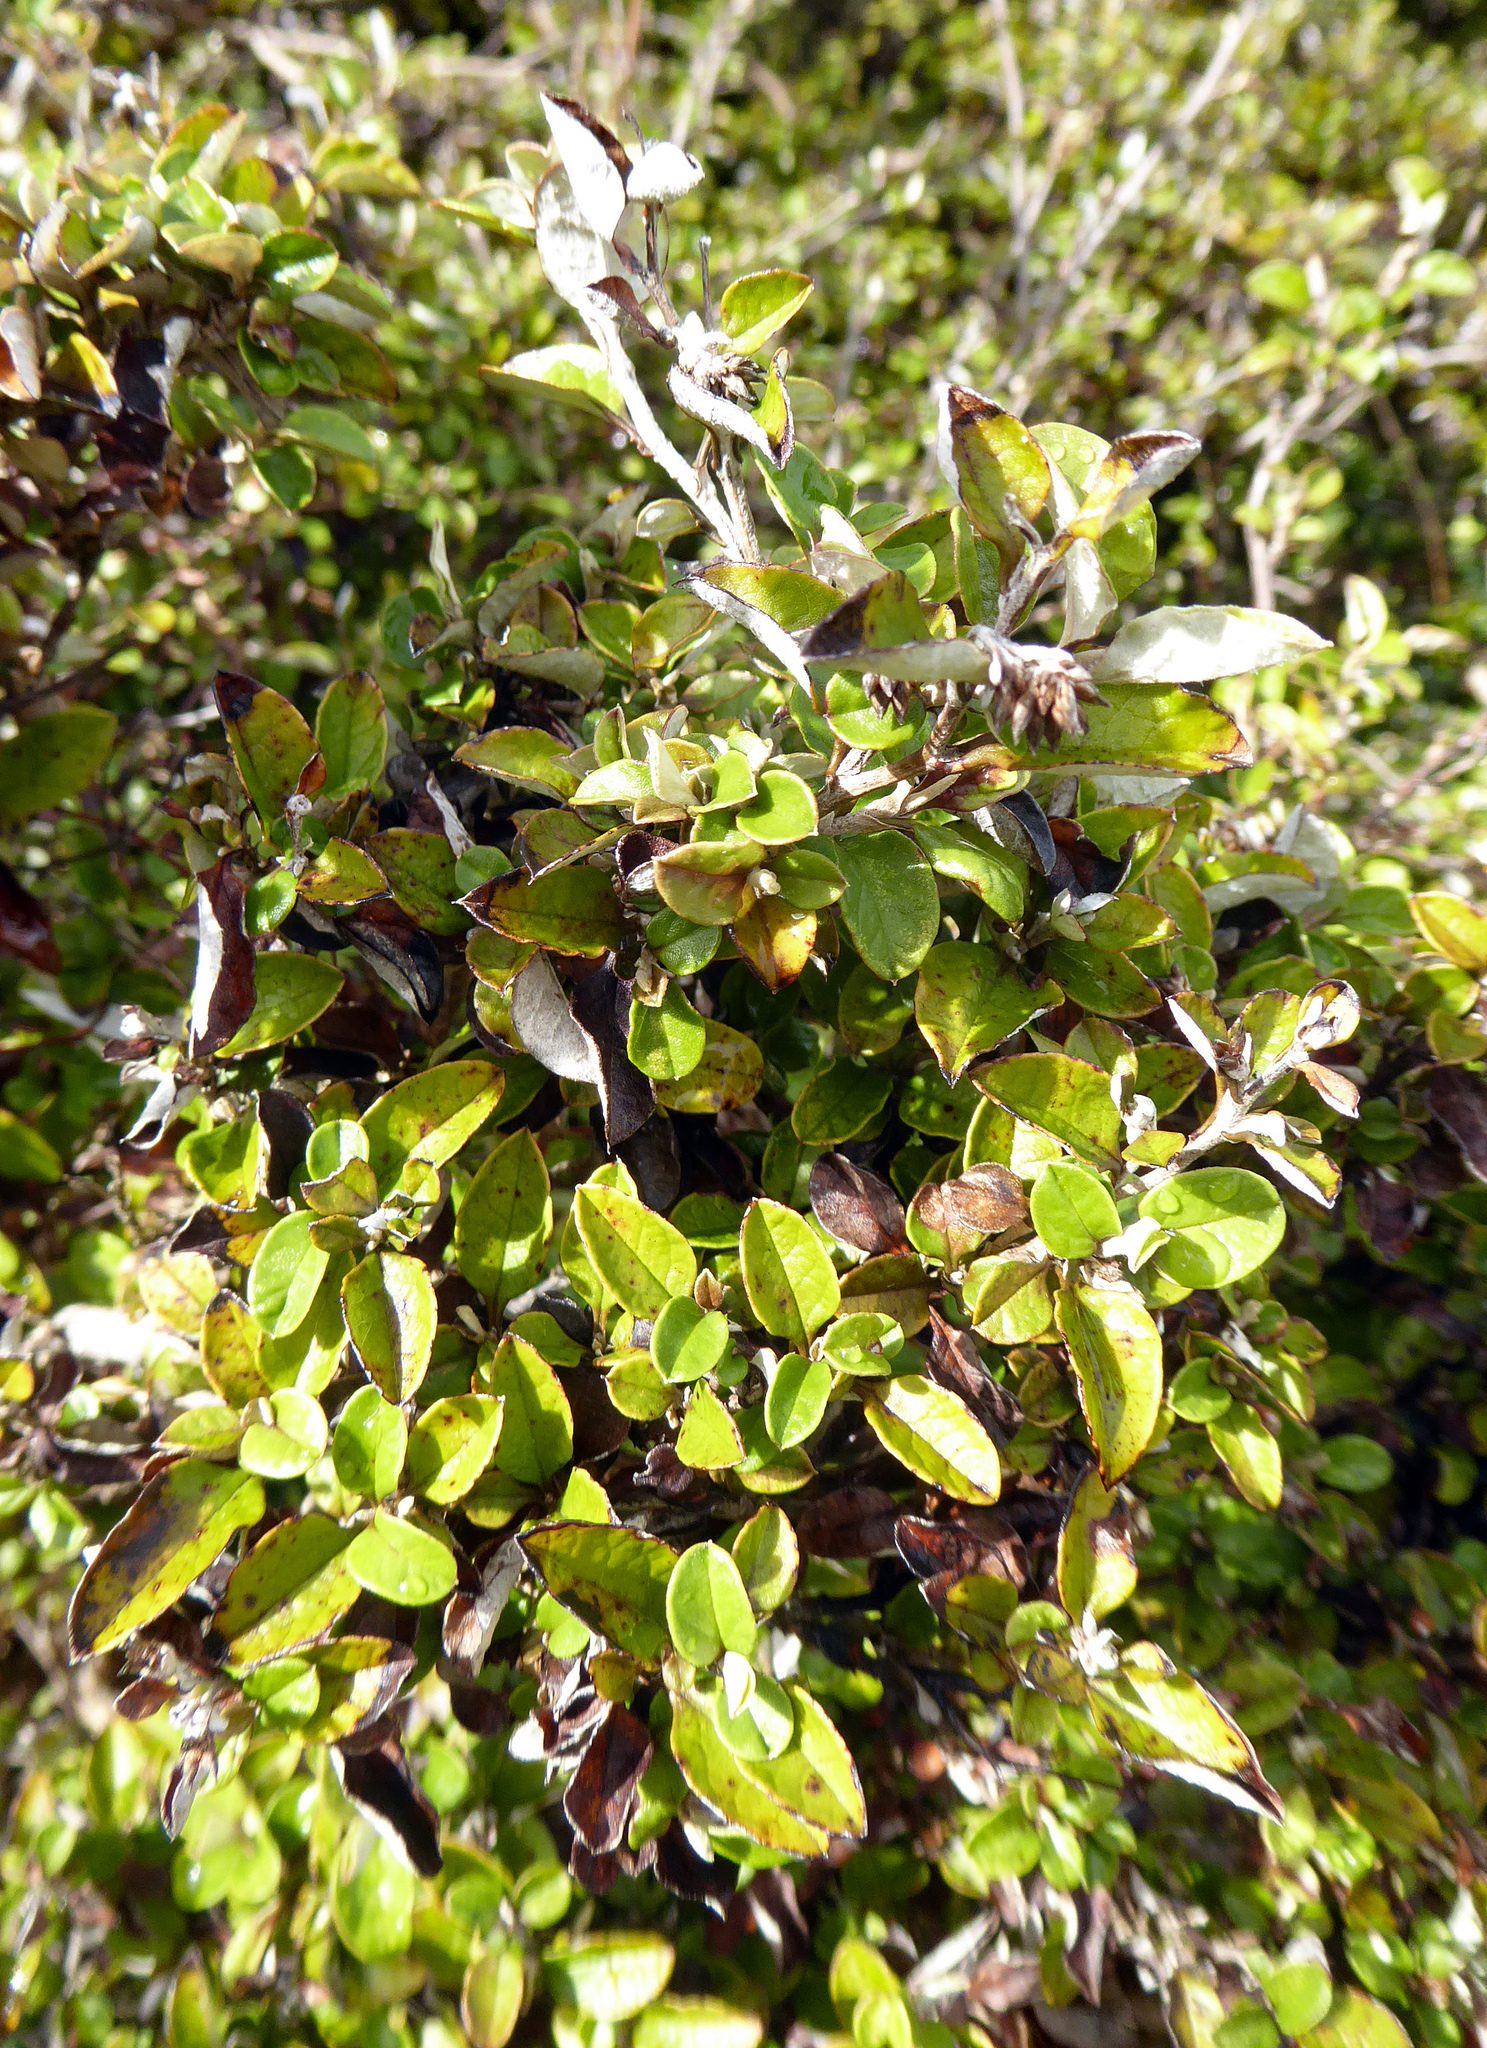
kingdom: Plantae
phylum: Tracheophyta
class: Magnoliopsida
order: Asterales
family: Asteraceae
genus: Ozothamnus
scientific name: Ozothamnus glomeratus
